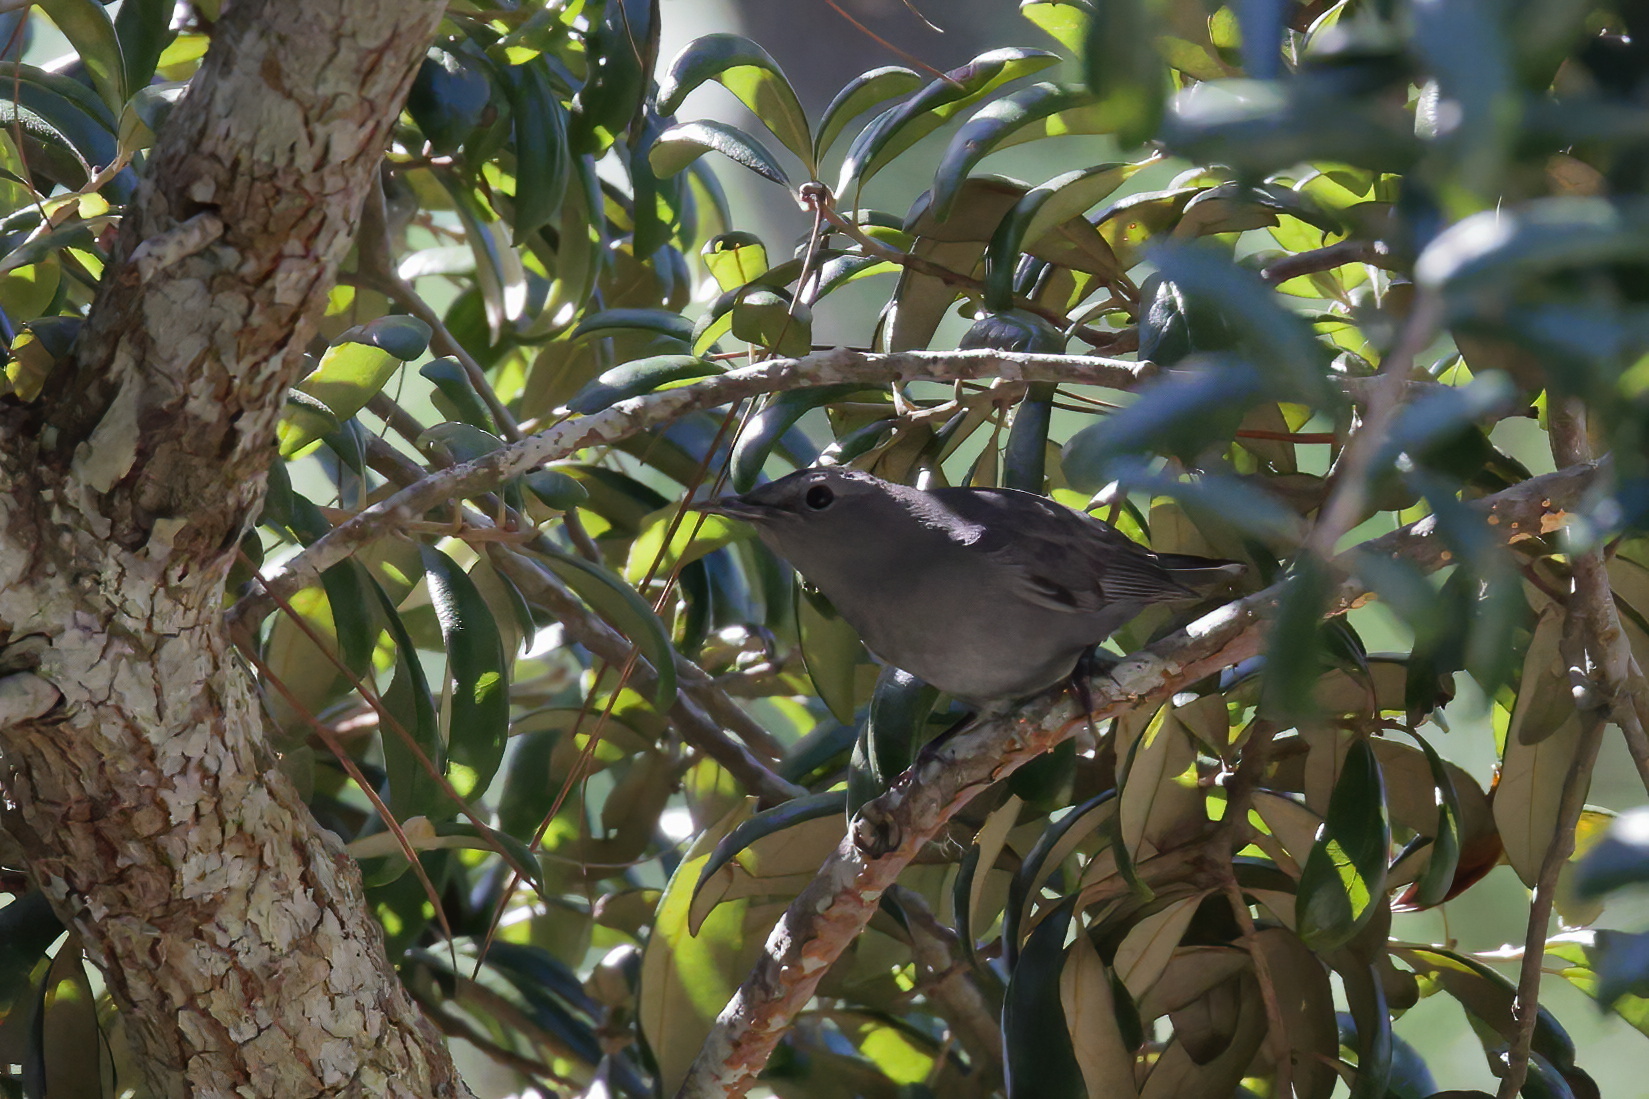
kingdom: Animalia
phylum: Chordata
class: Aves
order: Passeriformes
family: Mimidae
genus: Dumetella
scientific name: Dumetella carolinensis
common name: Gray catbird
